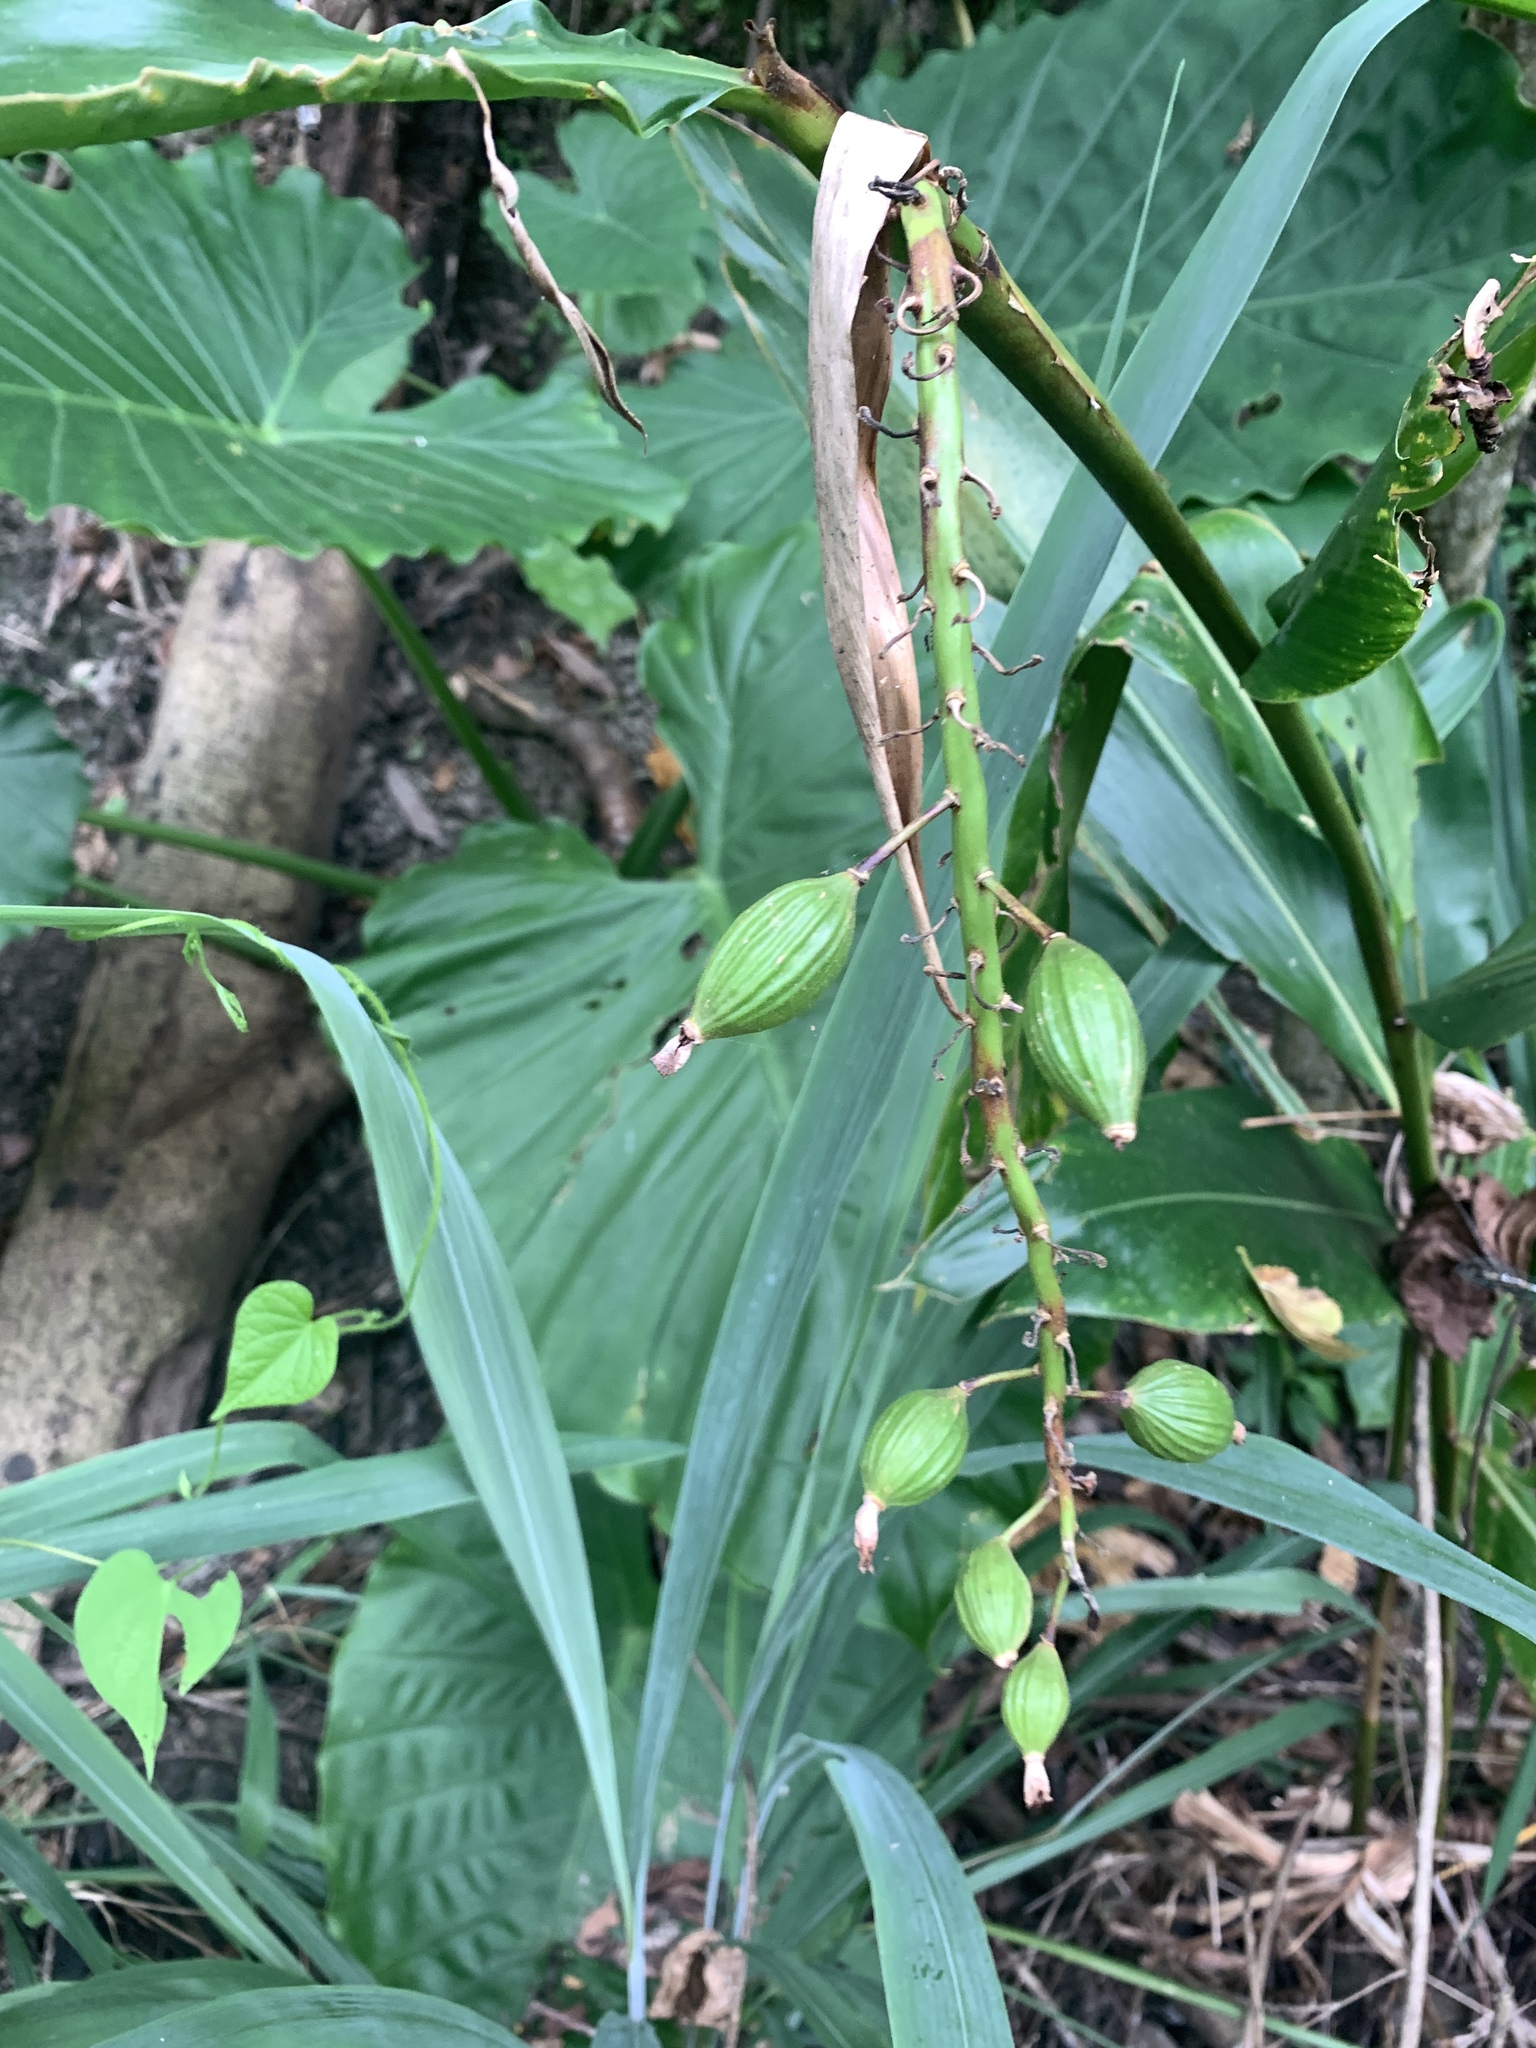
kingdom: Plantae
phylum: Tracheophyta
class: Liliopsida
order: Zingiberales
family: Zingiberaceae
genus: Alpinia
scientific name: Alpinia zerumbet
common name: Shellplant
